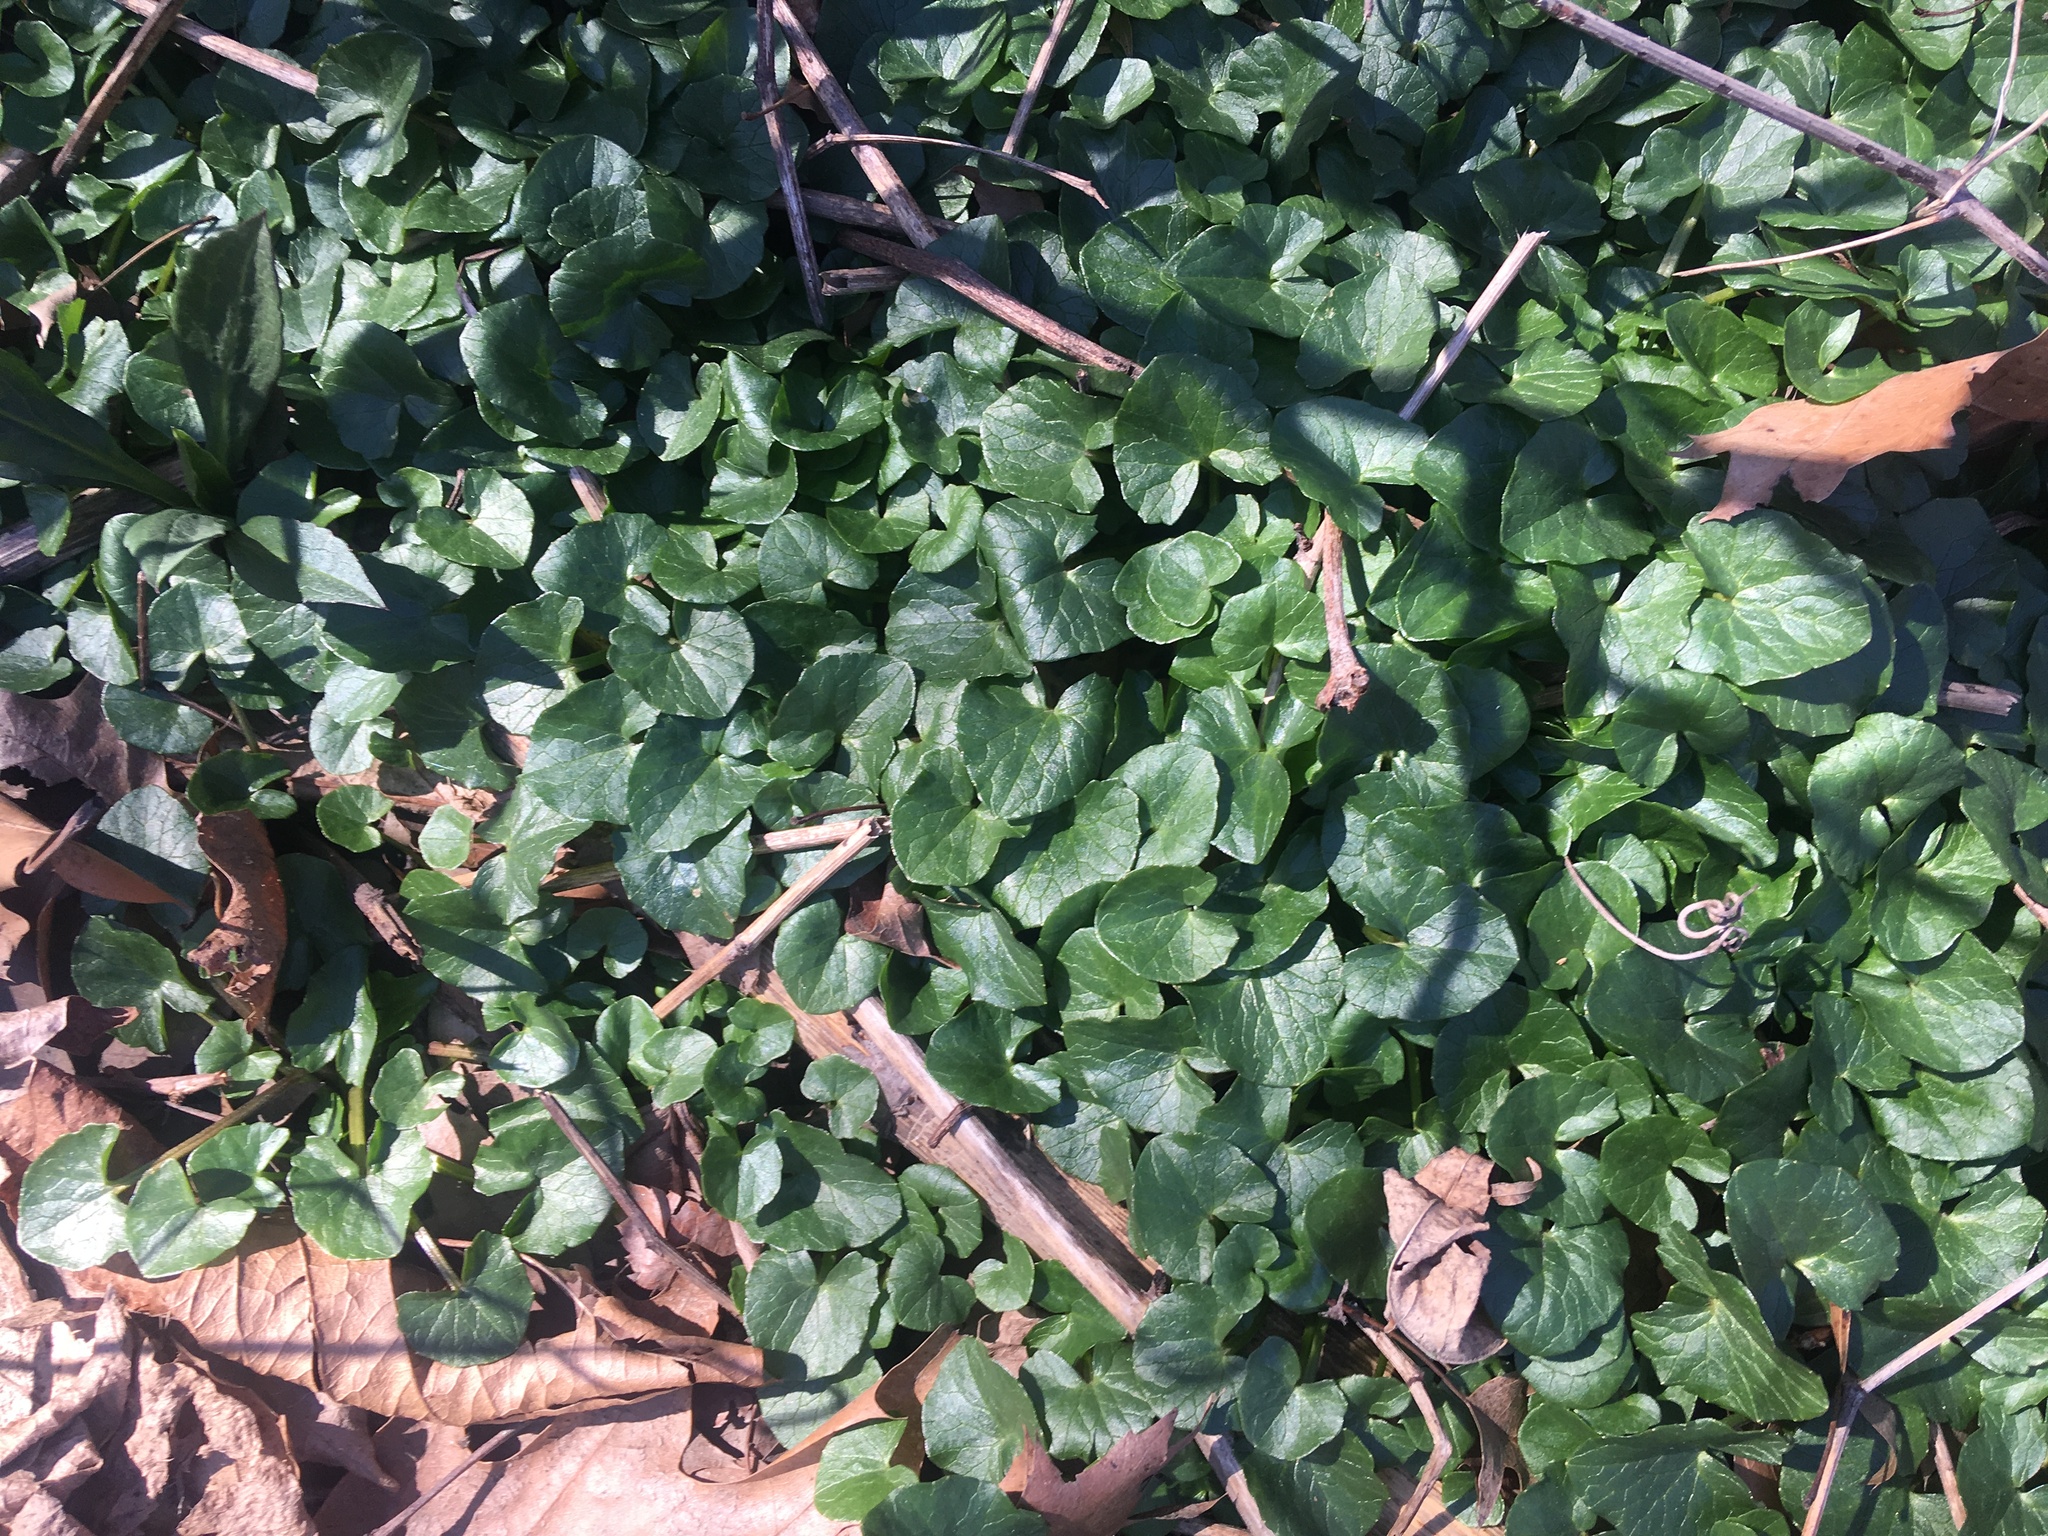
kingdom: Plantae
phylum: Tracheophyta
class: Magnoliopsida
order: Ranunculales
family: Ranunculaceae
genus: Ficaria
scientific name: Ficaria verna
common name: Lesser celandine
